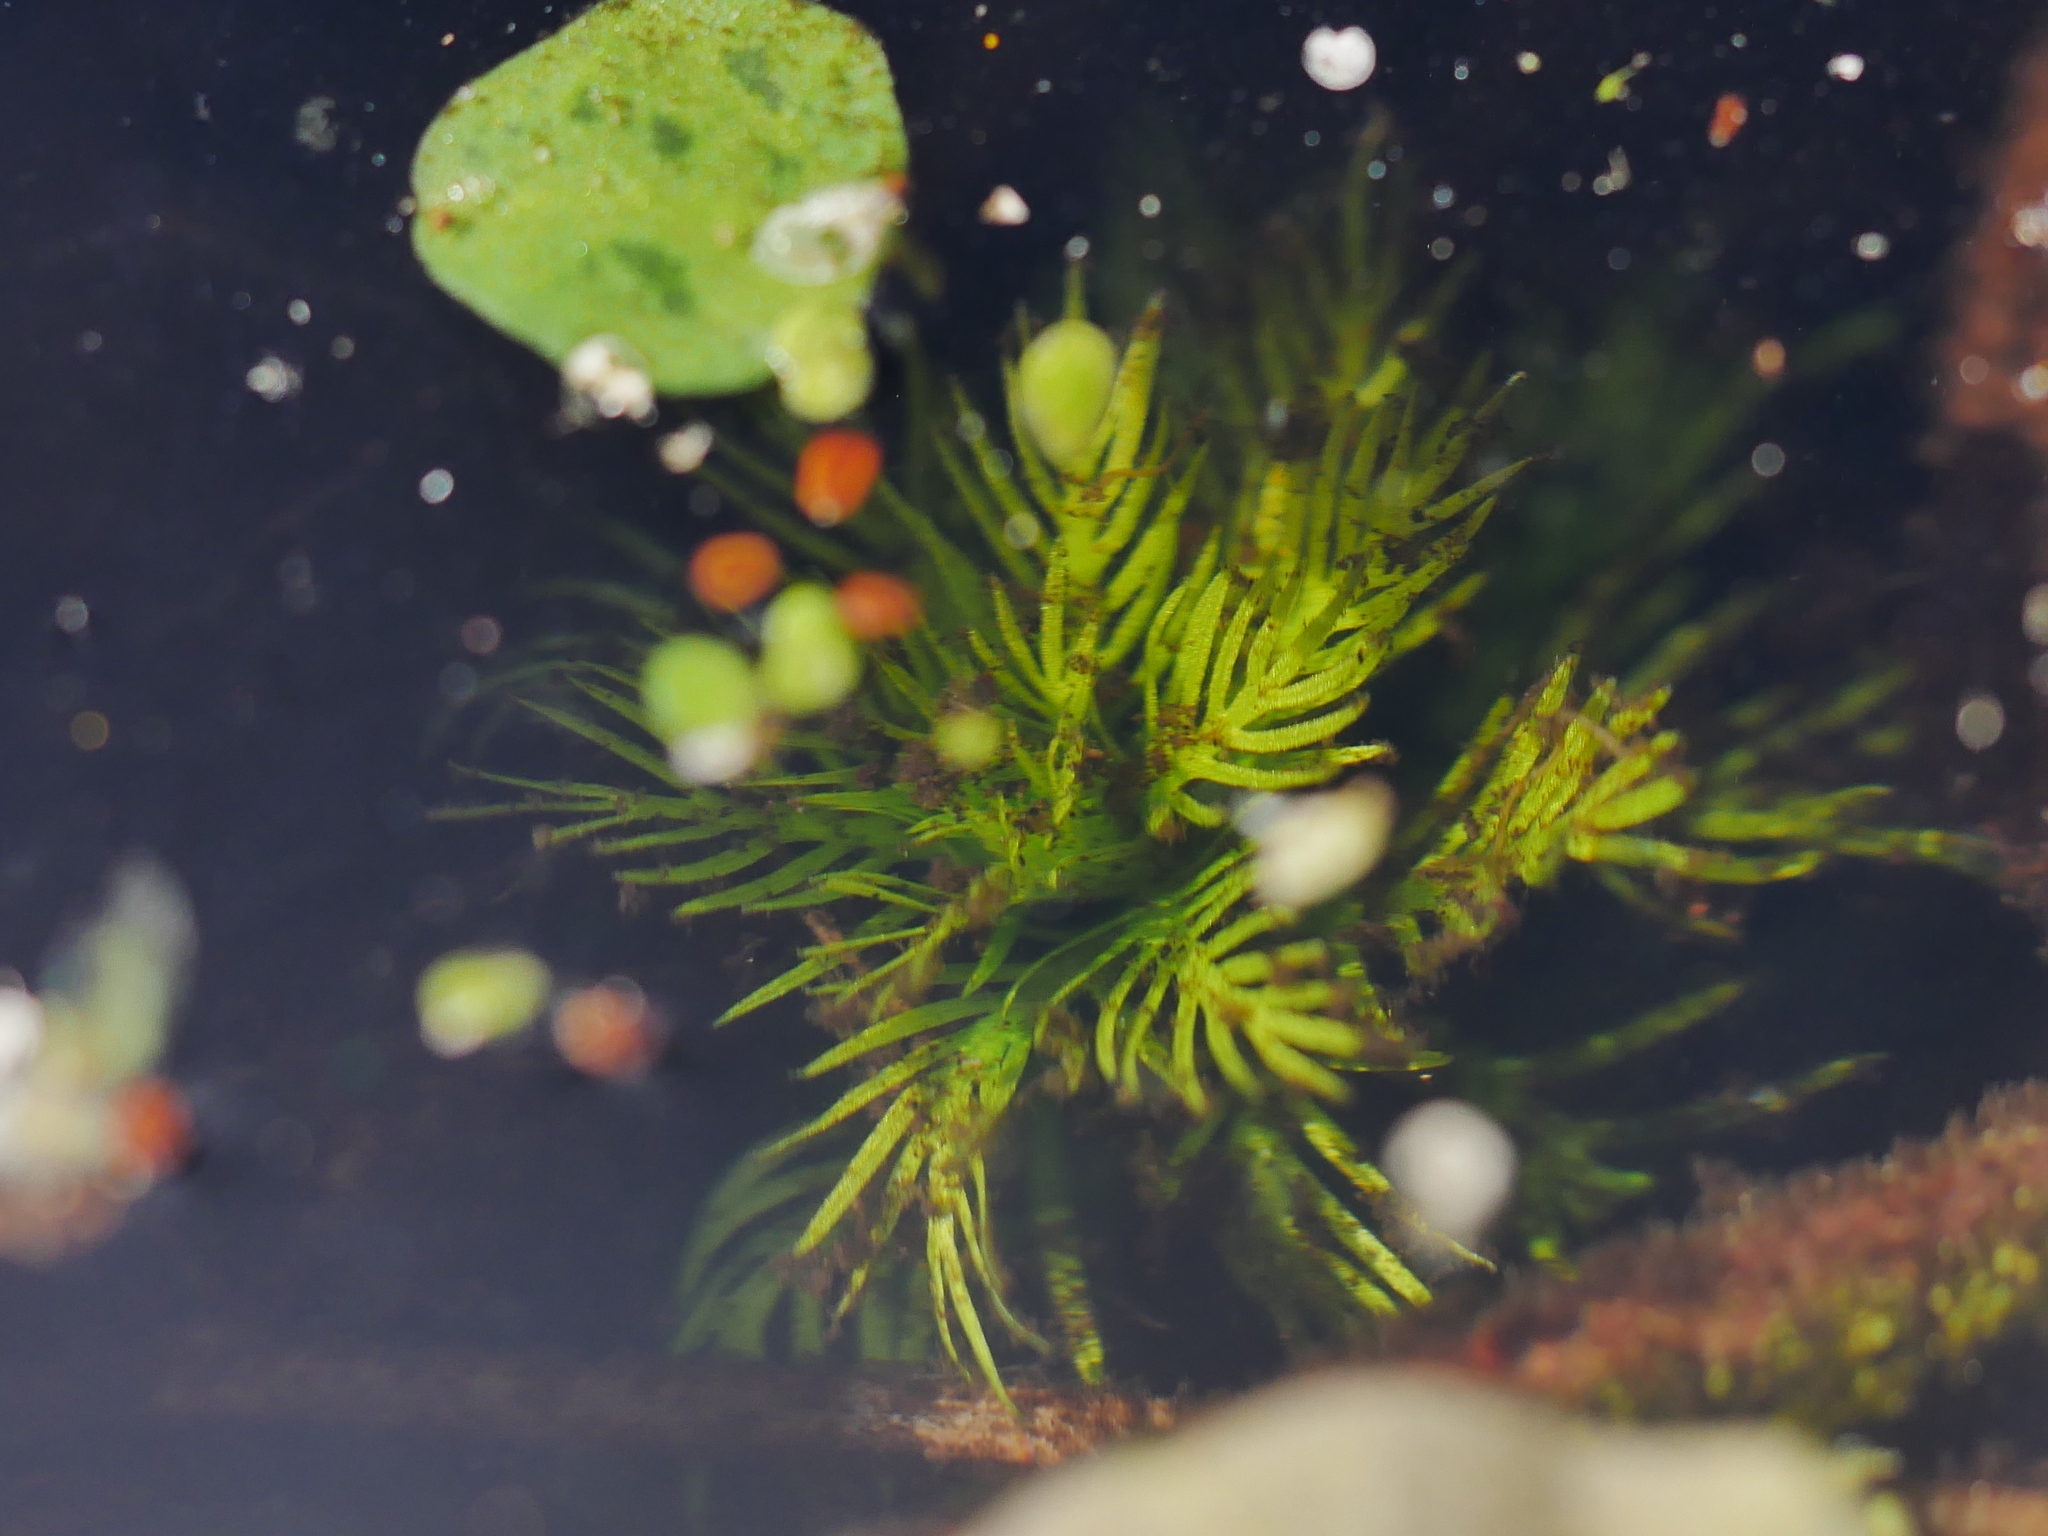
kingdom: Plantae
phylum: Tracheophyta
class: Magnoliopsida
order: Ericales
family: Primulaceae
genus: Hottonia
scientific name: Hottonia palustris
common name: Water-violet
